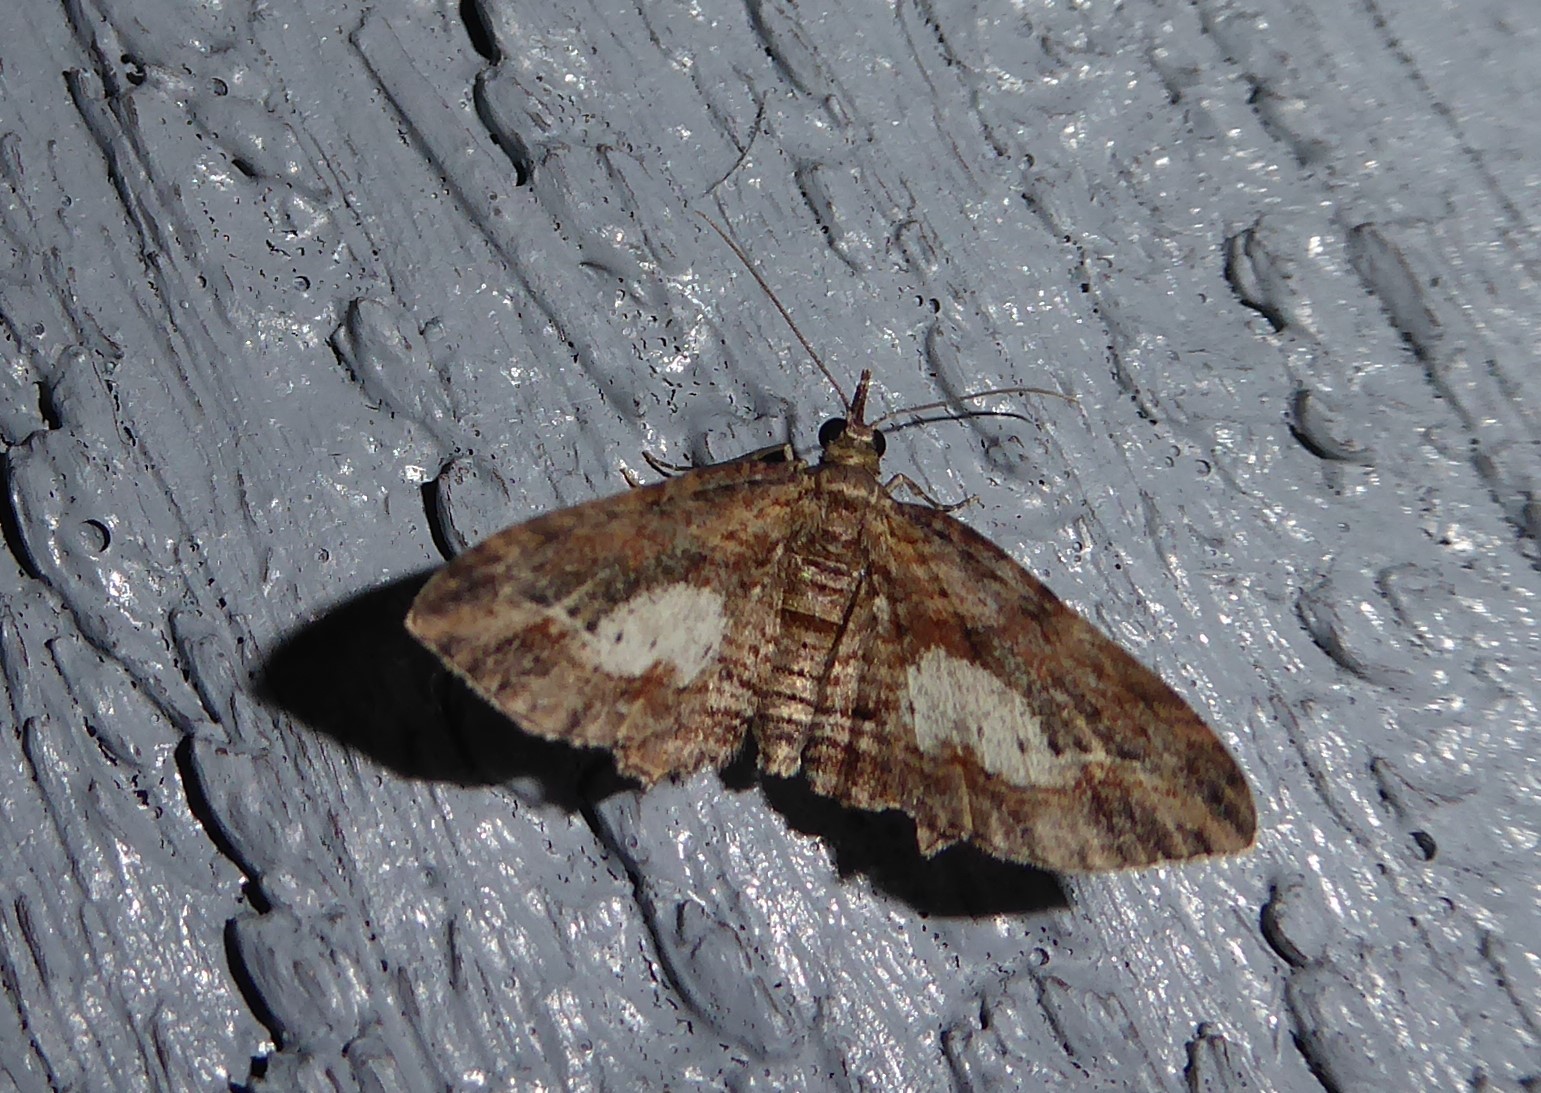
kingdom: Animalia
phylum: Arthropoda
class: Insecta
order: Lepidoptera
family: Geometridae
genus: Chloroclystis
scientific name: Chloroclystis filata
